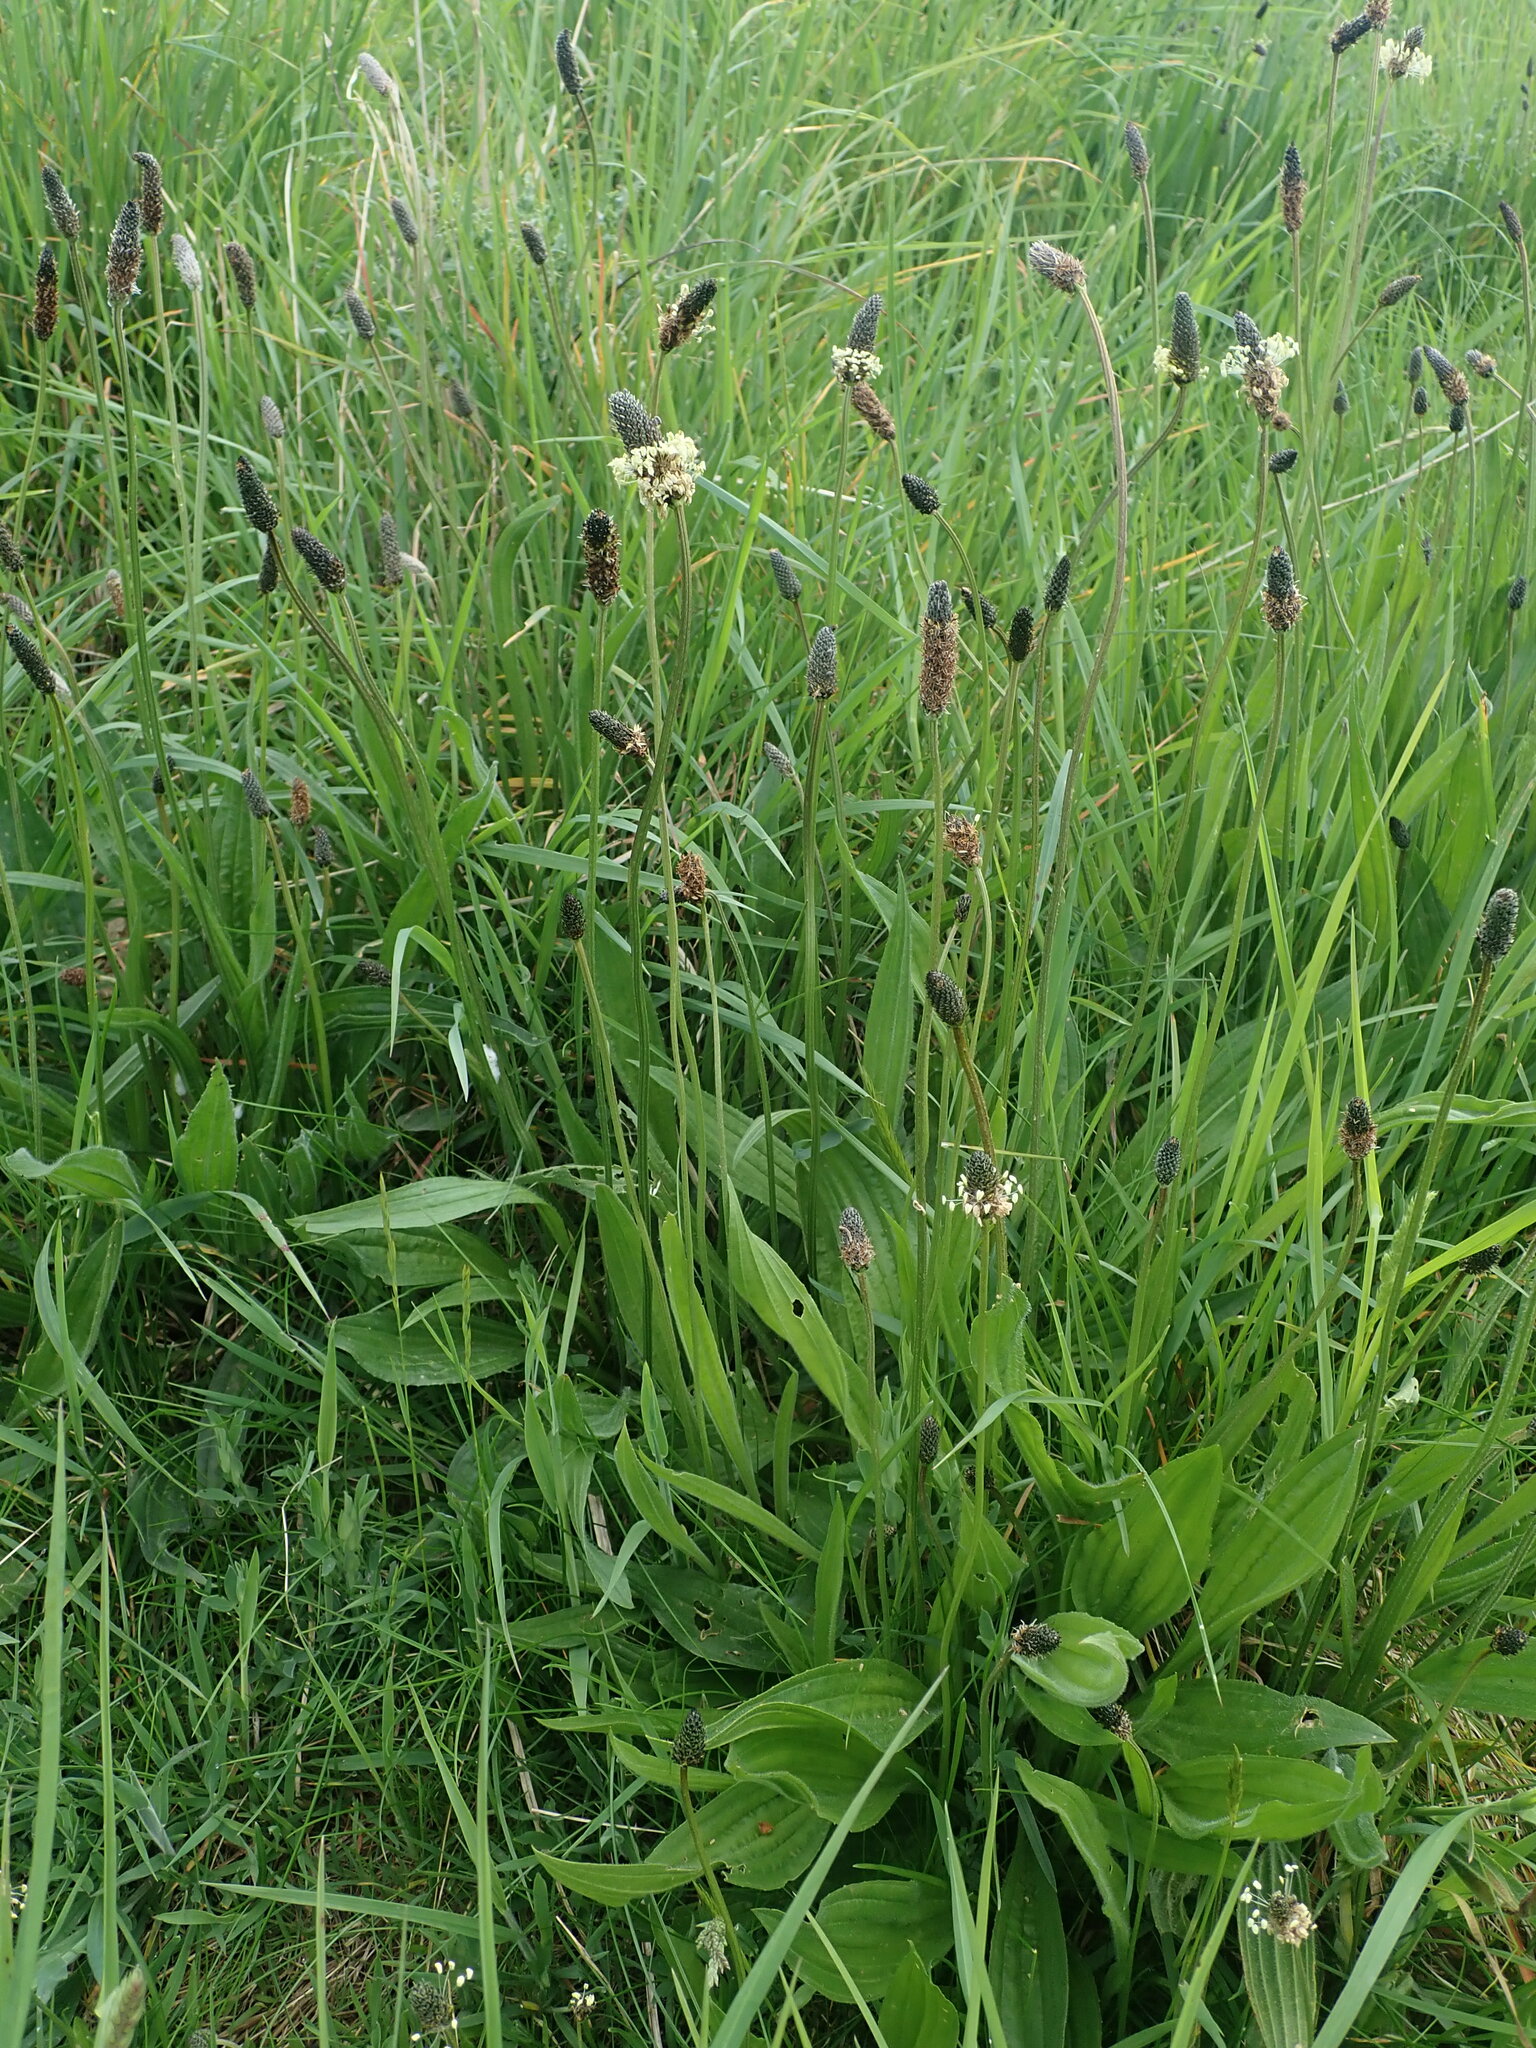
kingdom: Plantae
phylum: Tracheophyta
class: Magnoliopsida
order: Lamiales
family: Plantaginaceae
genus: Plantago
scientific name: Plantago lanceolata
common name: Ribwort plantain
